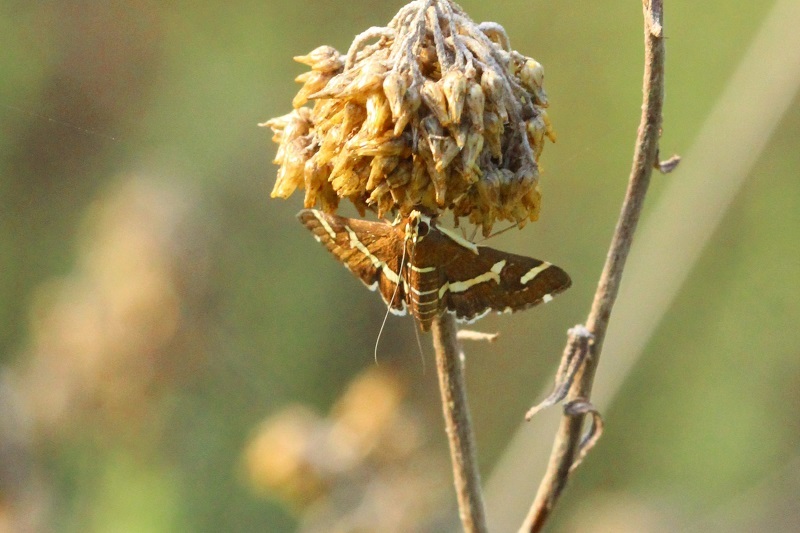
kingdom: Animalia
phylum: Arthropoda
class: Insecta
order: Lepidoptera
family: Crambidae
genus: Spoladea
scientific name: Spoladea recurvalis
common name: Beet webworm moth
